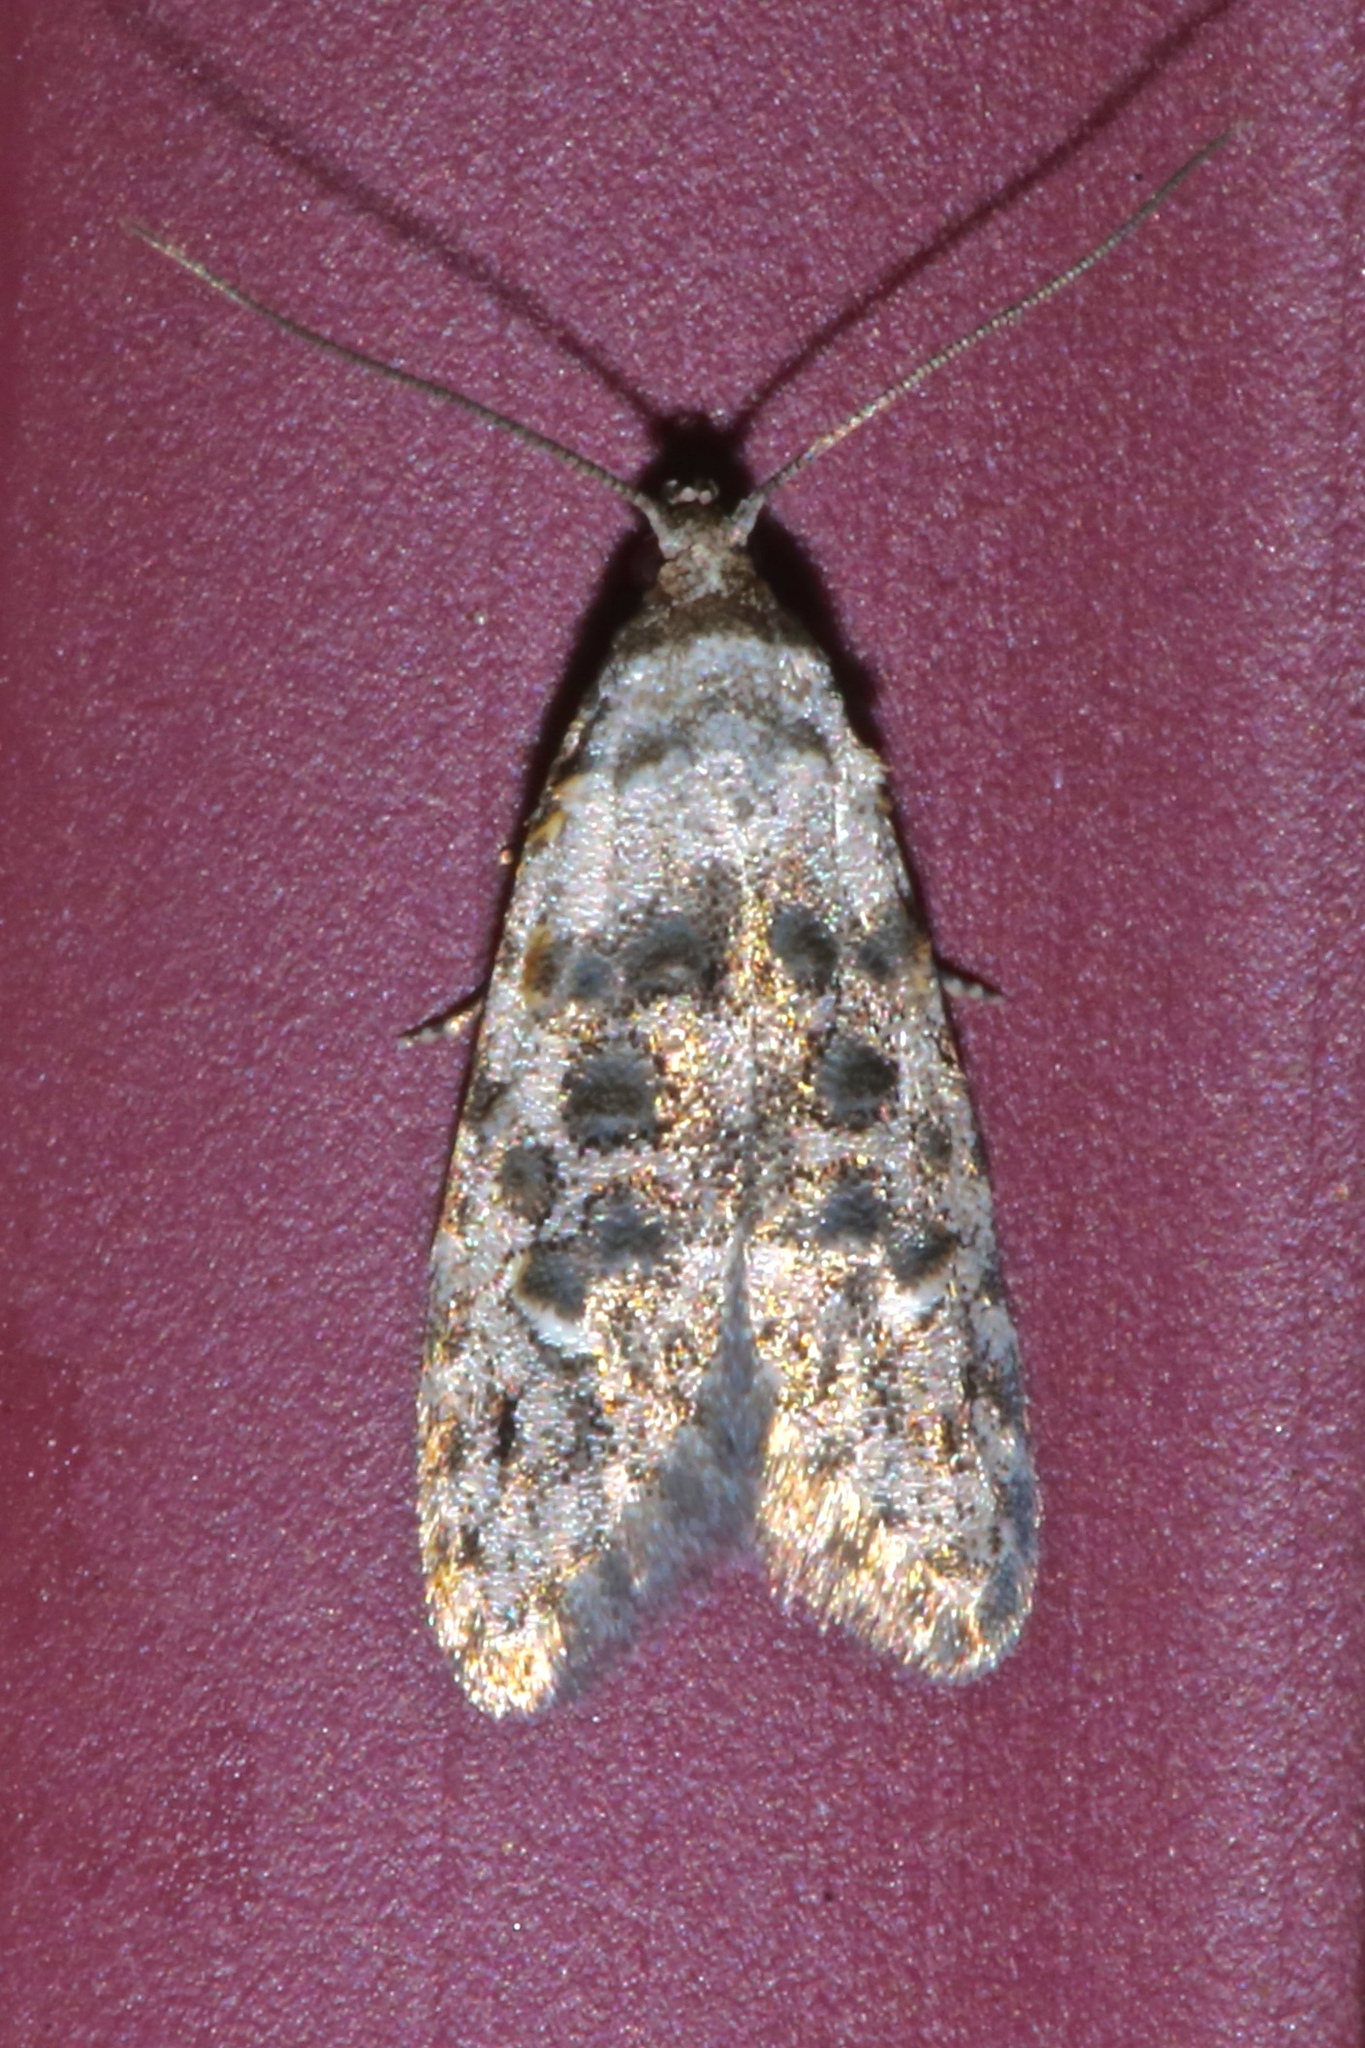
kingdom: Animalia
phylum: Arthropoda
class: Insecta
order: Lepidoptera
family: Carposinidae
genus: Bondia
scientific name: Bondia crescentella
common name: Crescent-marked bondia
